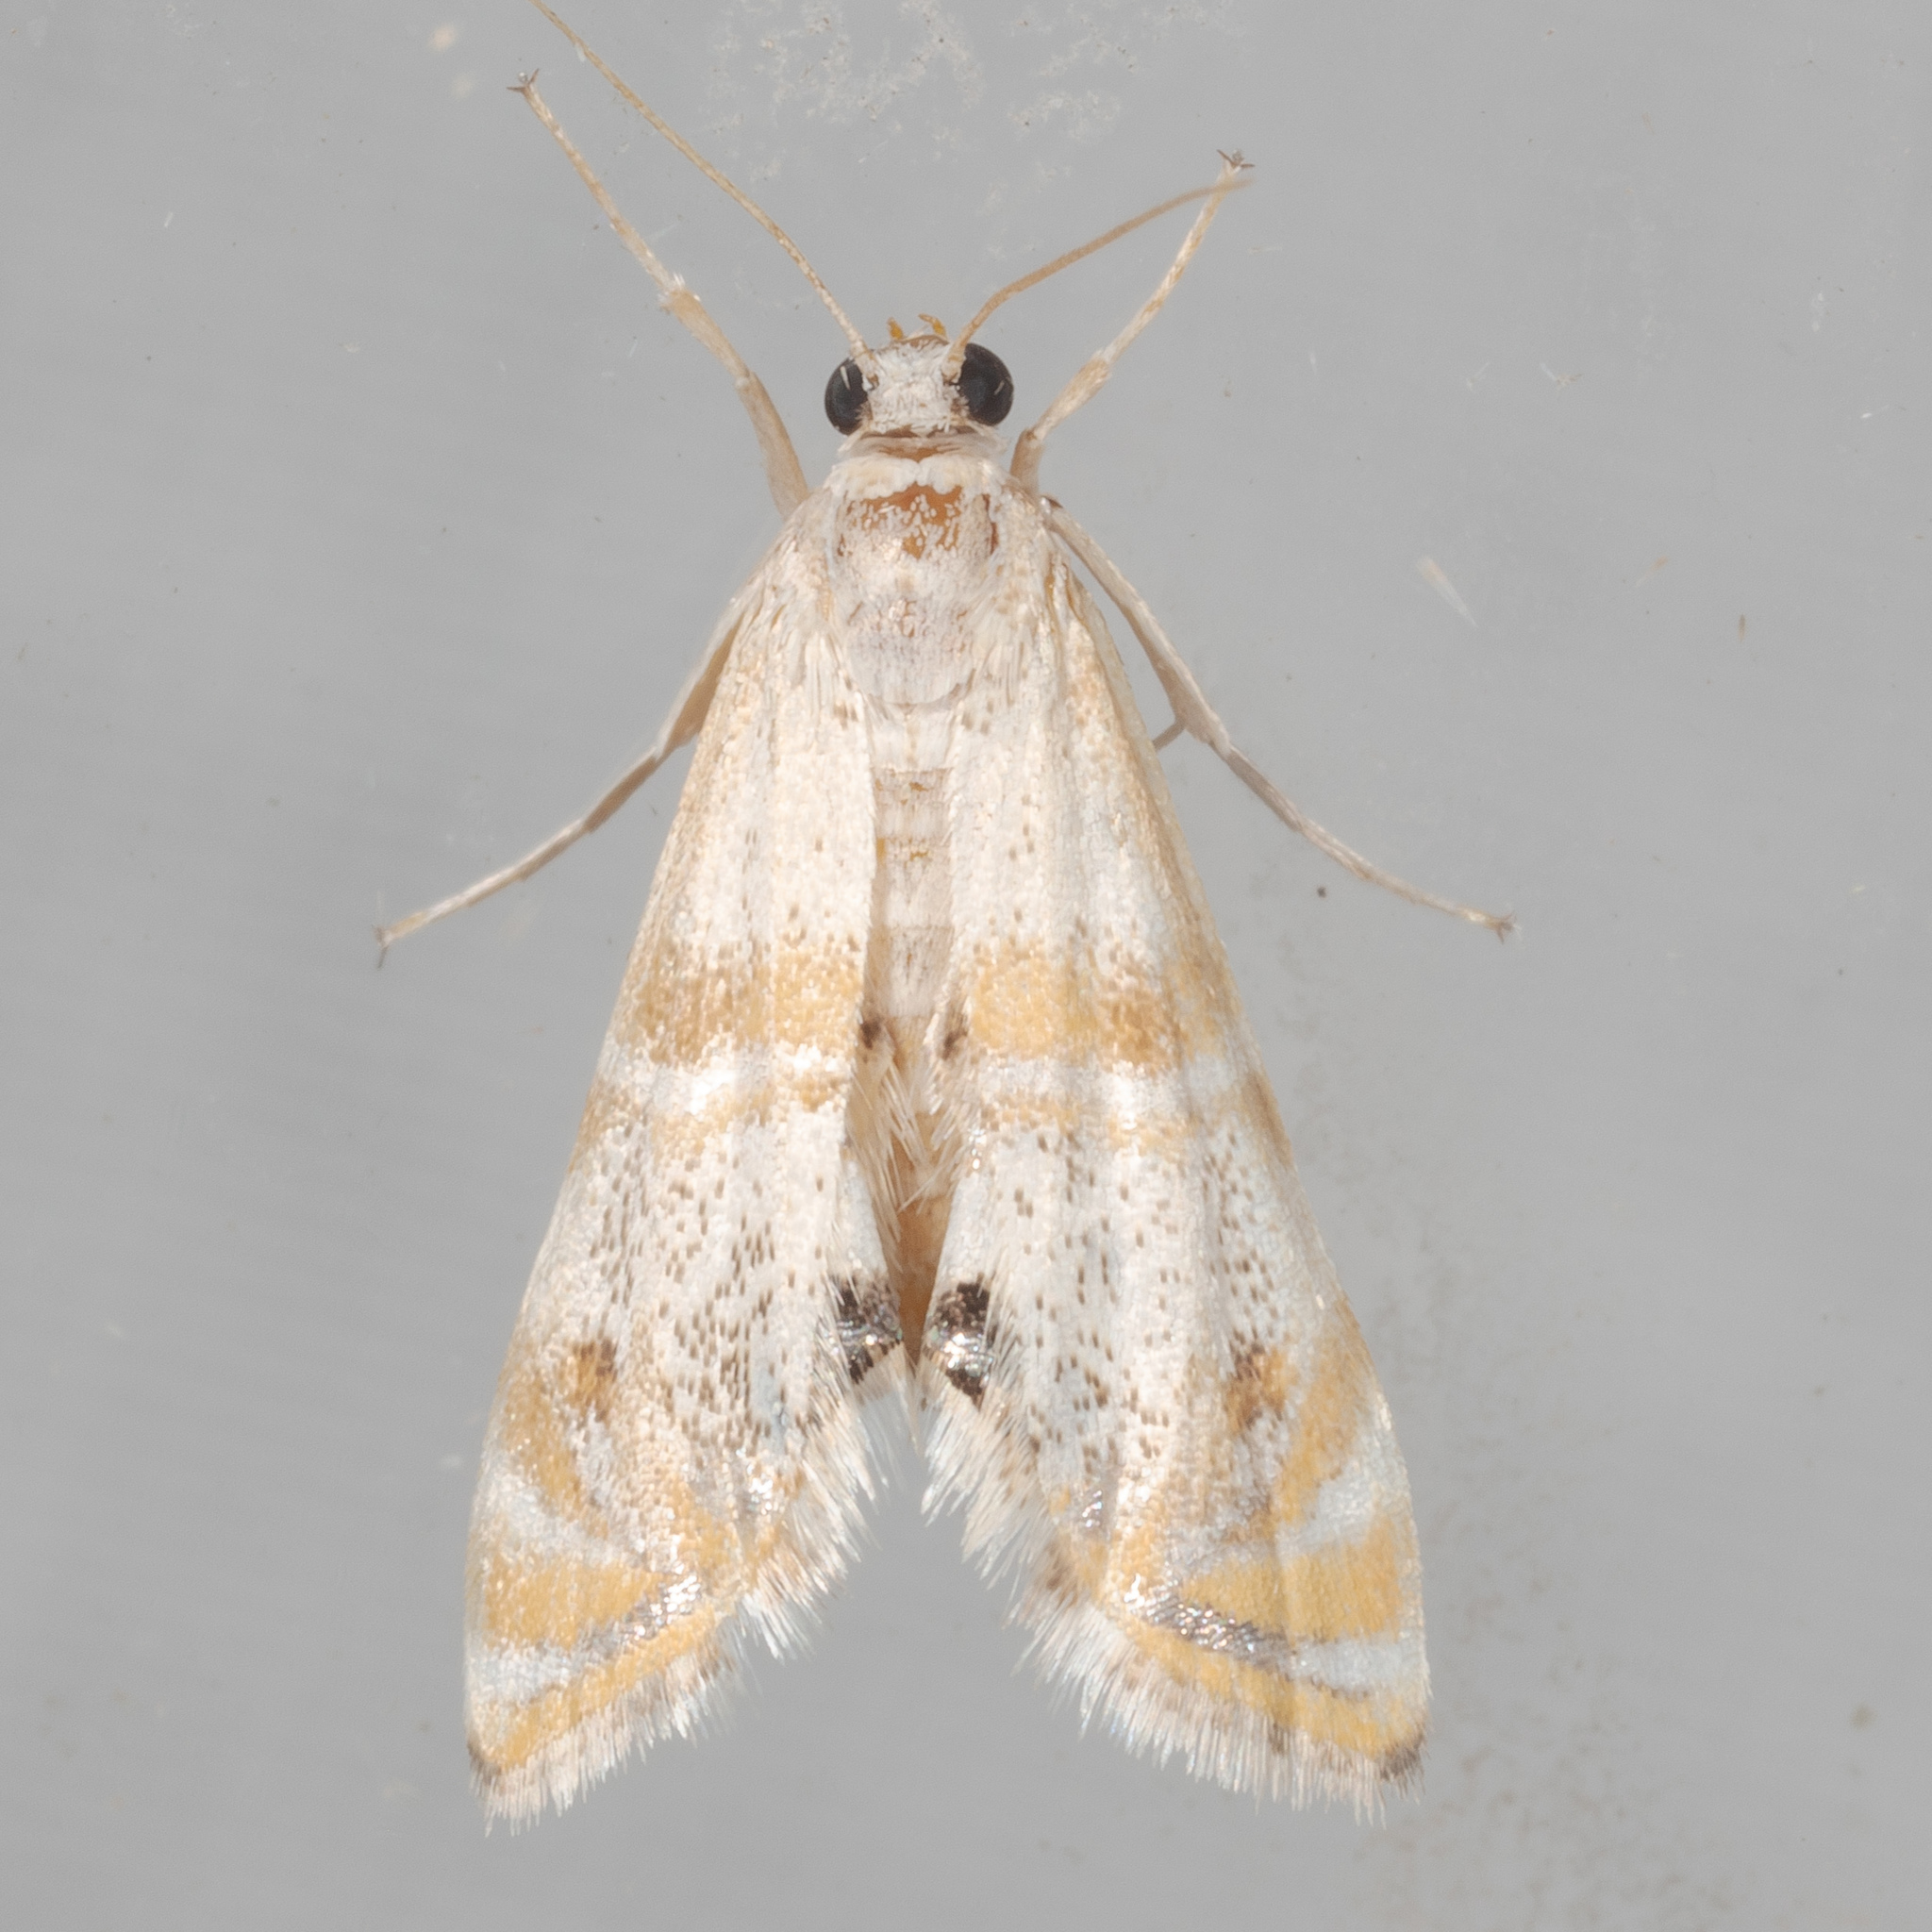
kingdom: Animalia
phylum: Arthropoda
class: Insecta
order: Lepidoptera
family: Crambidae
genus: Petrophila
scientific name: Petrophila bifascialis
